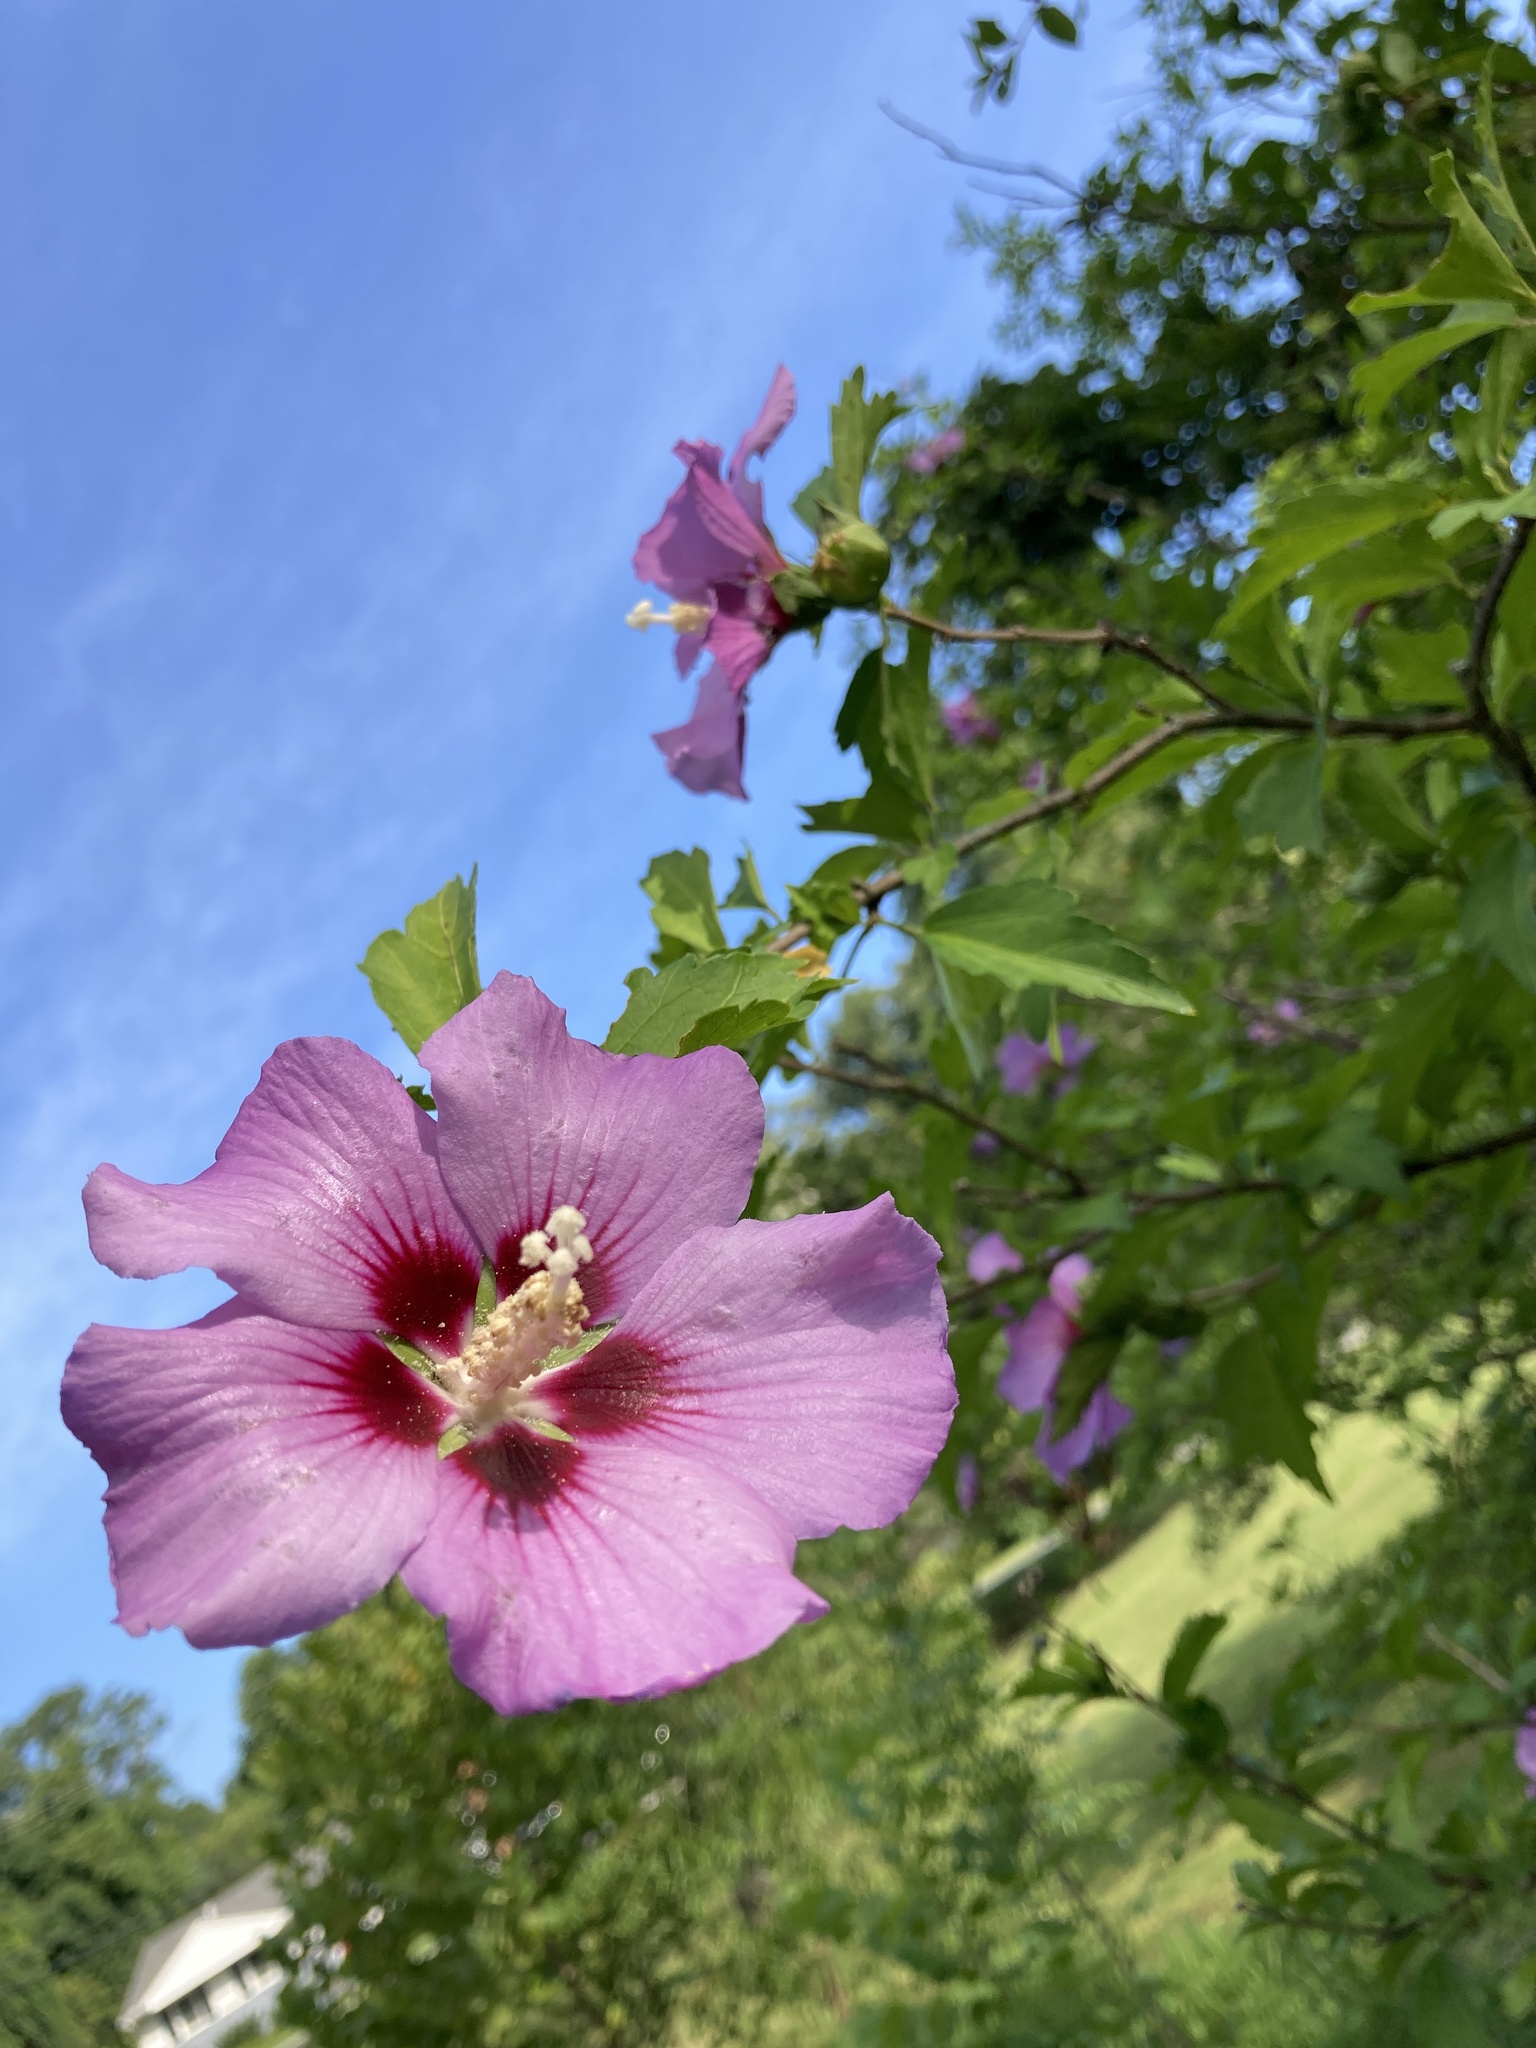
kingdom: Plantae
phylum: Tracheophyta
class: Magnoliopsida
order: Malvales
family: Malvaceae
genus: Hibiscus
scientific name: Hibiscus syriacus
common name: Syrian ketmia
